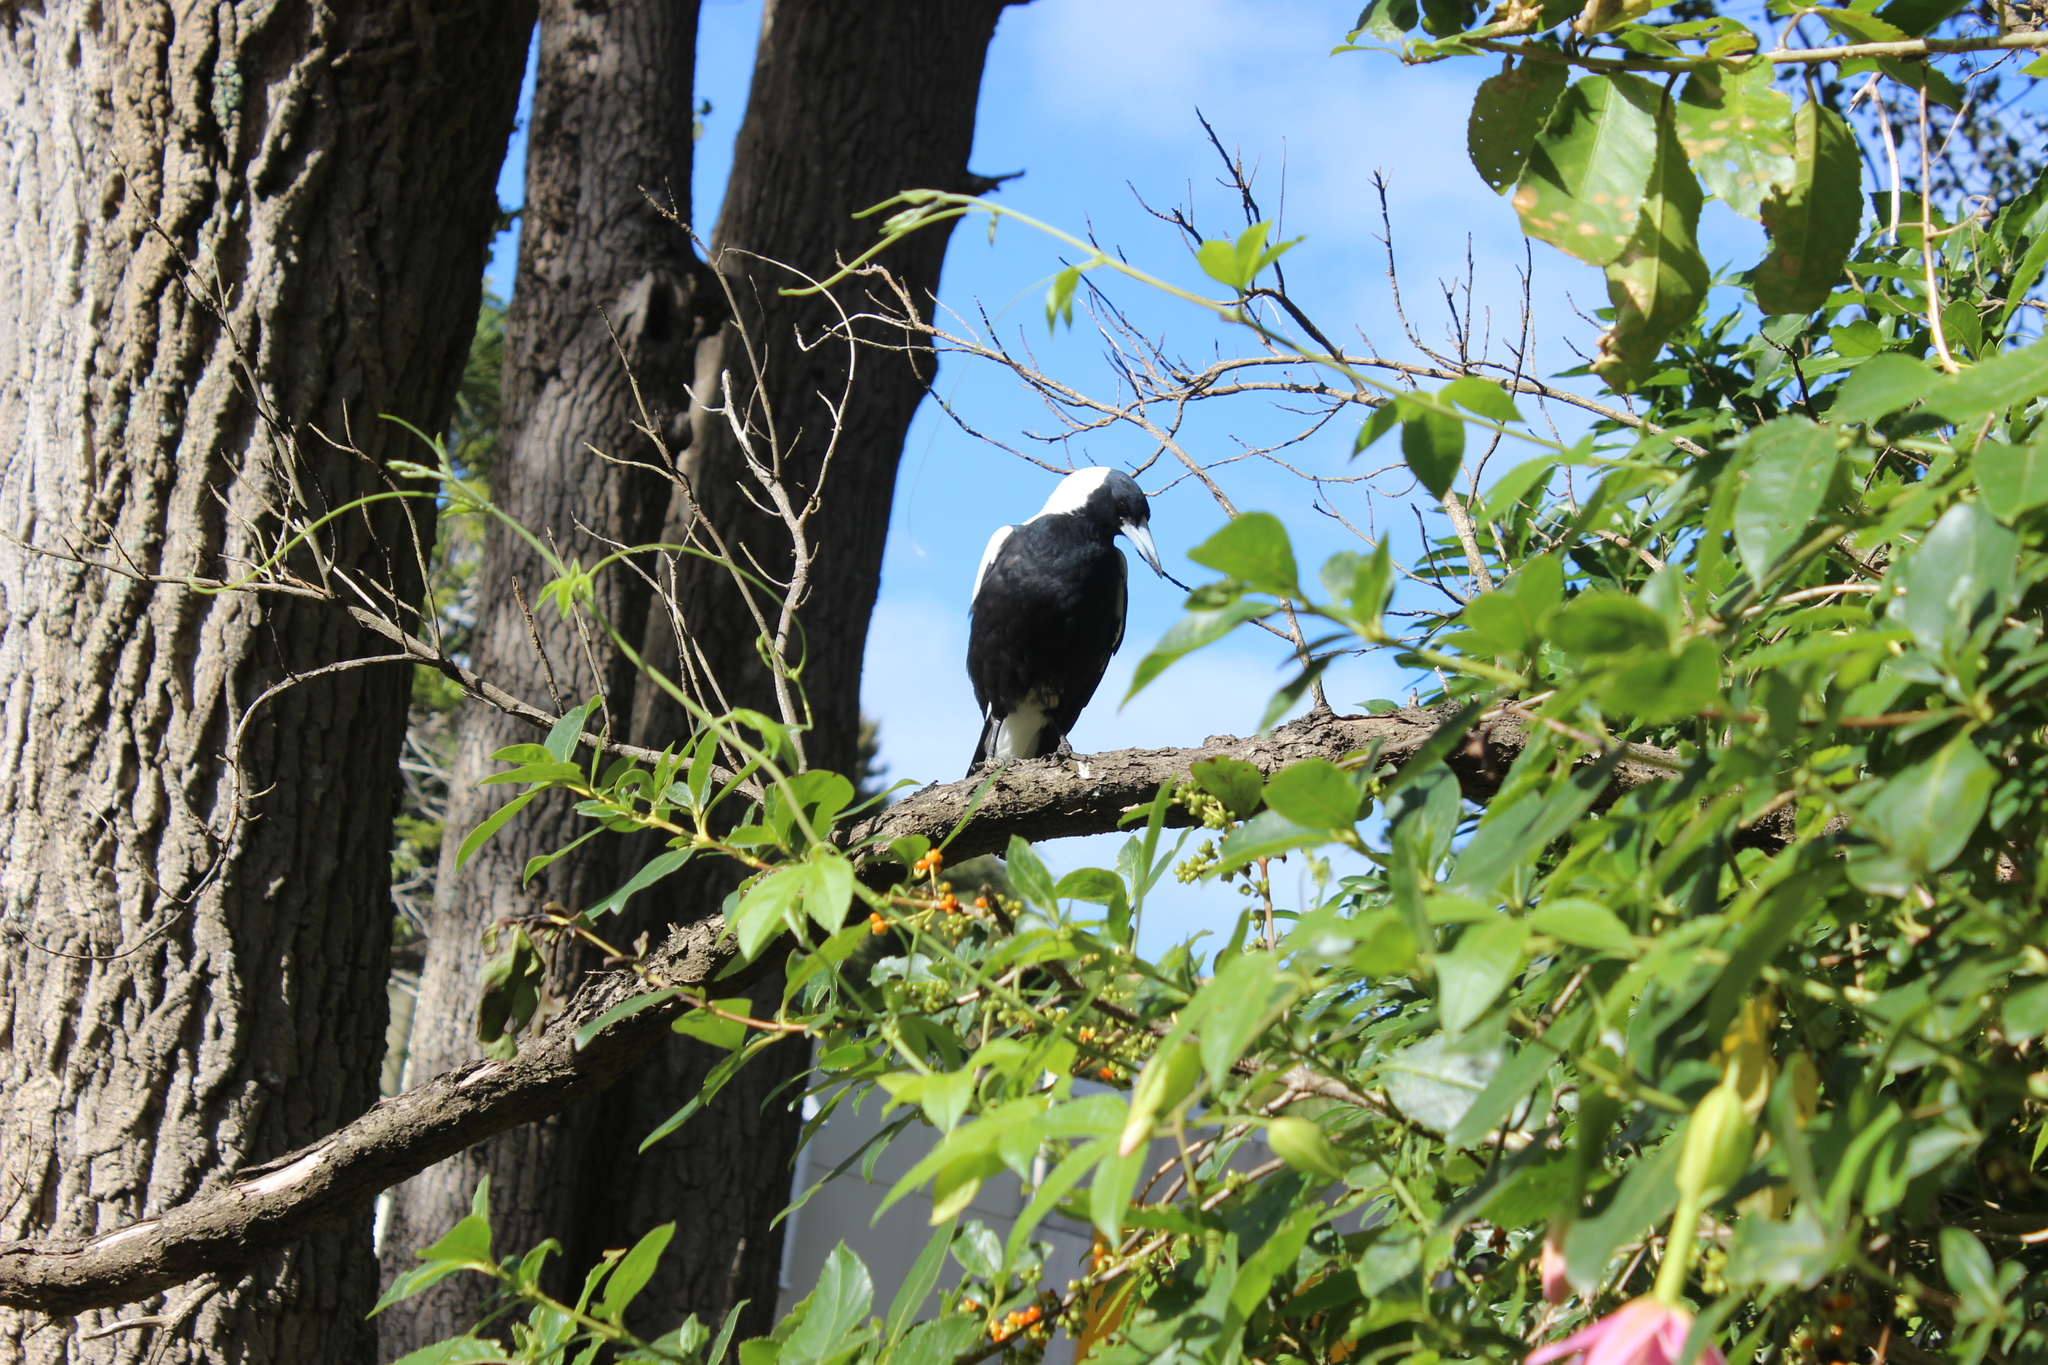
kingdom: Animalia
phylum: Chordata
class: Aves
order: Passeriformes
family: Cracticidae
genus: Gymnorhina
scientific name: Gymnorhina tibicen
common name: Australian magpie
